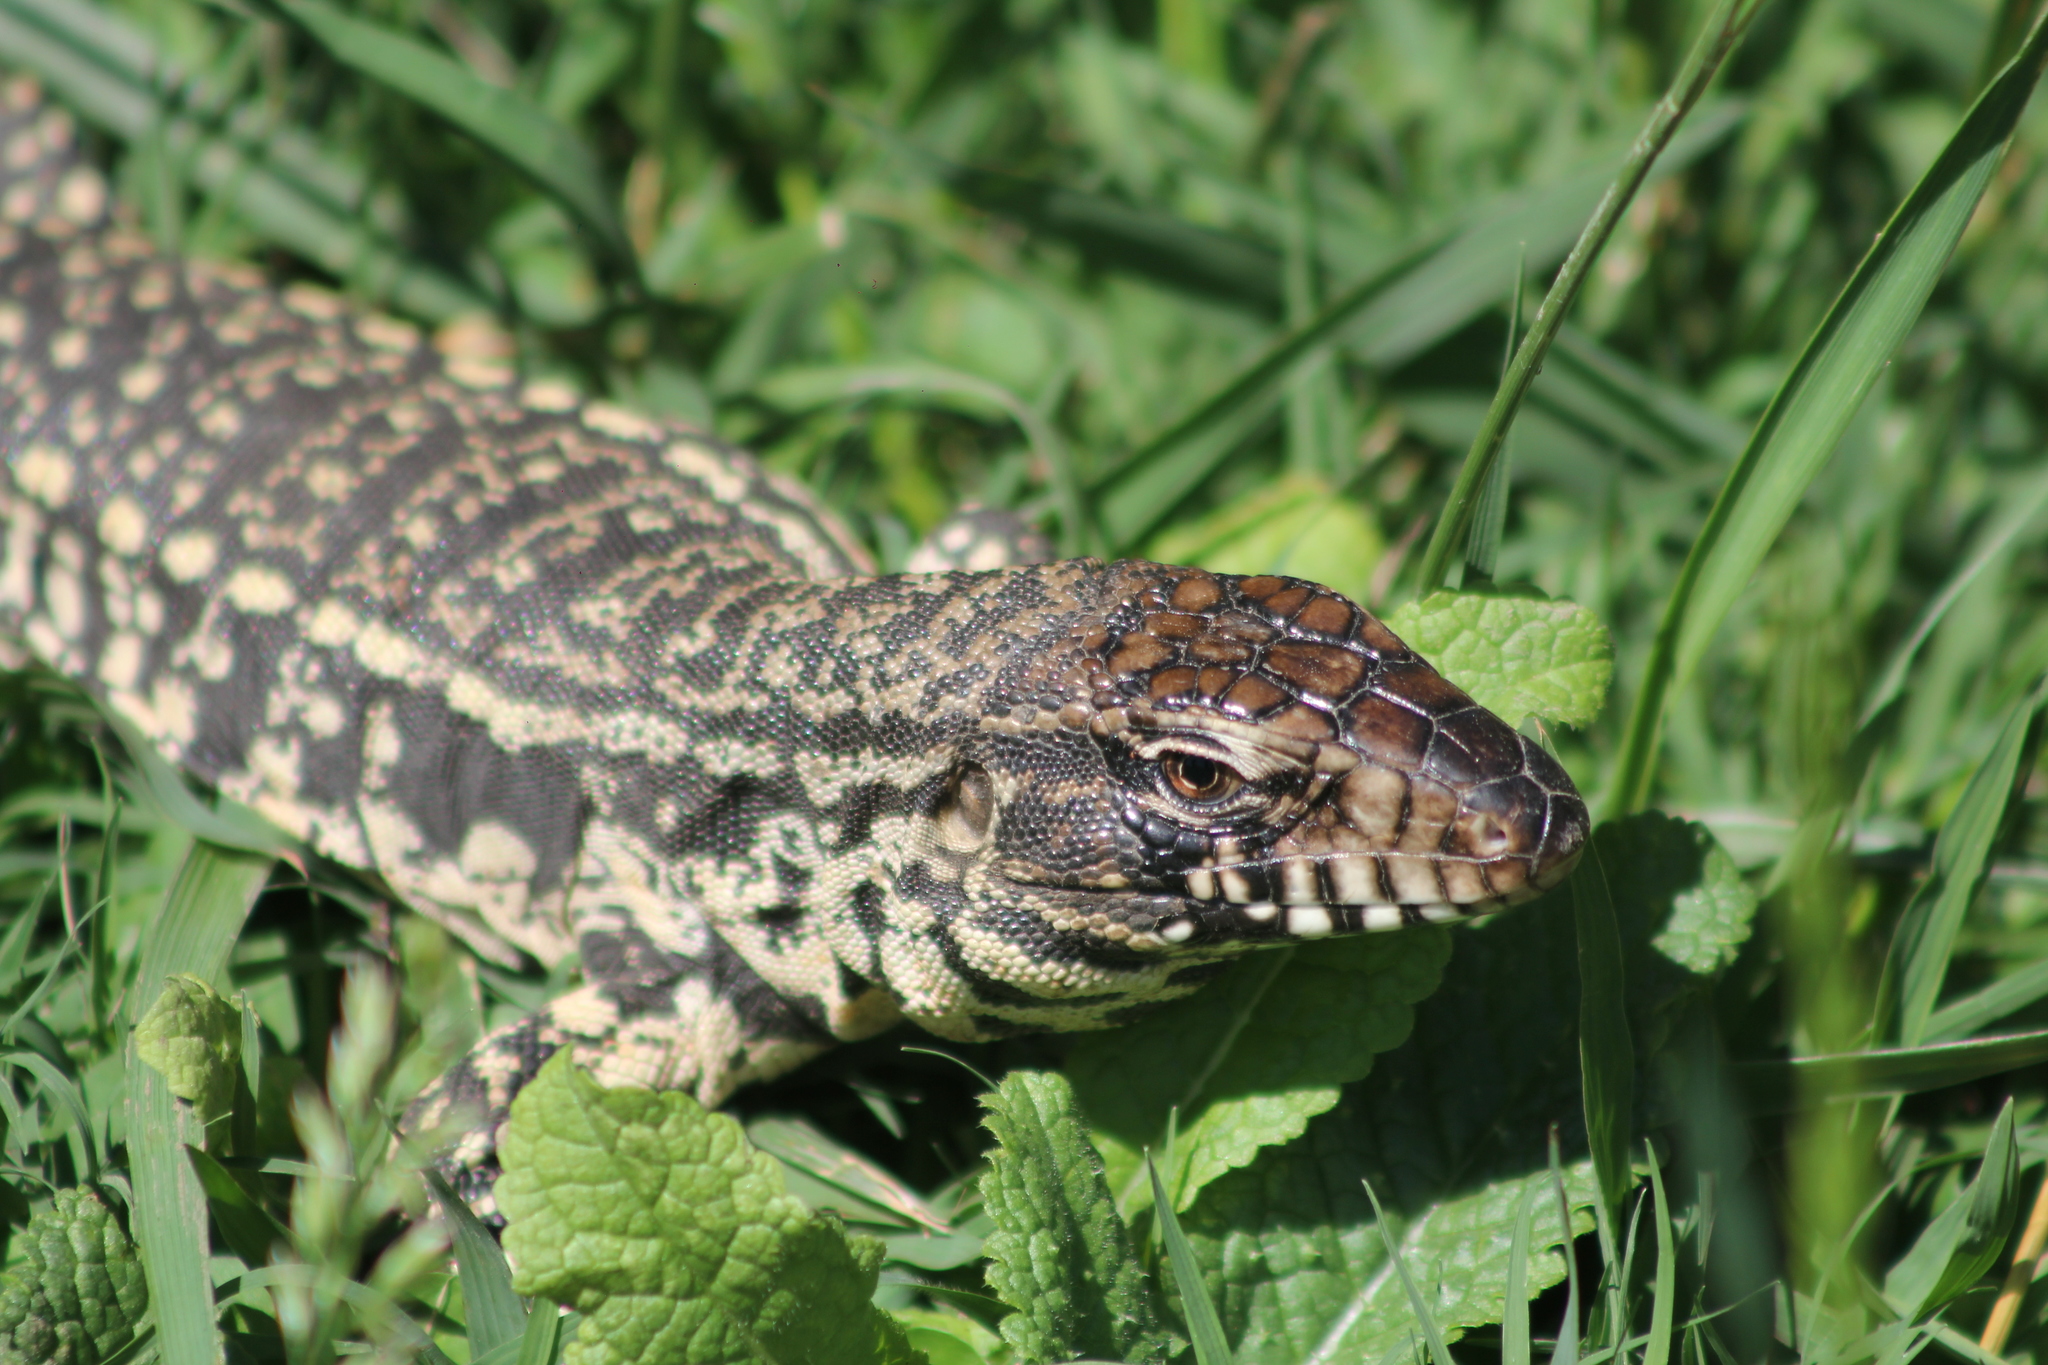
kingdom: Animalia
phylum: Chordata
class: Squamata
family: Teiidae
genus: Salvator
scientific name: Salvator merianae
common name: Argentine black and white tegu
